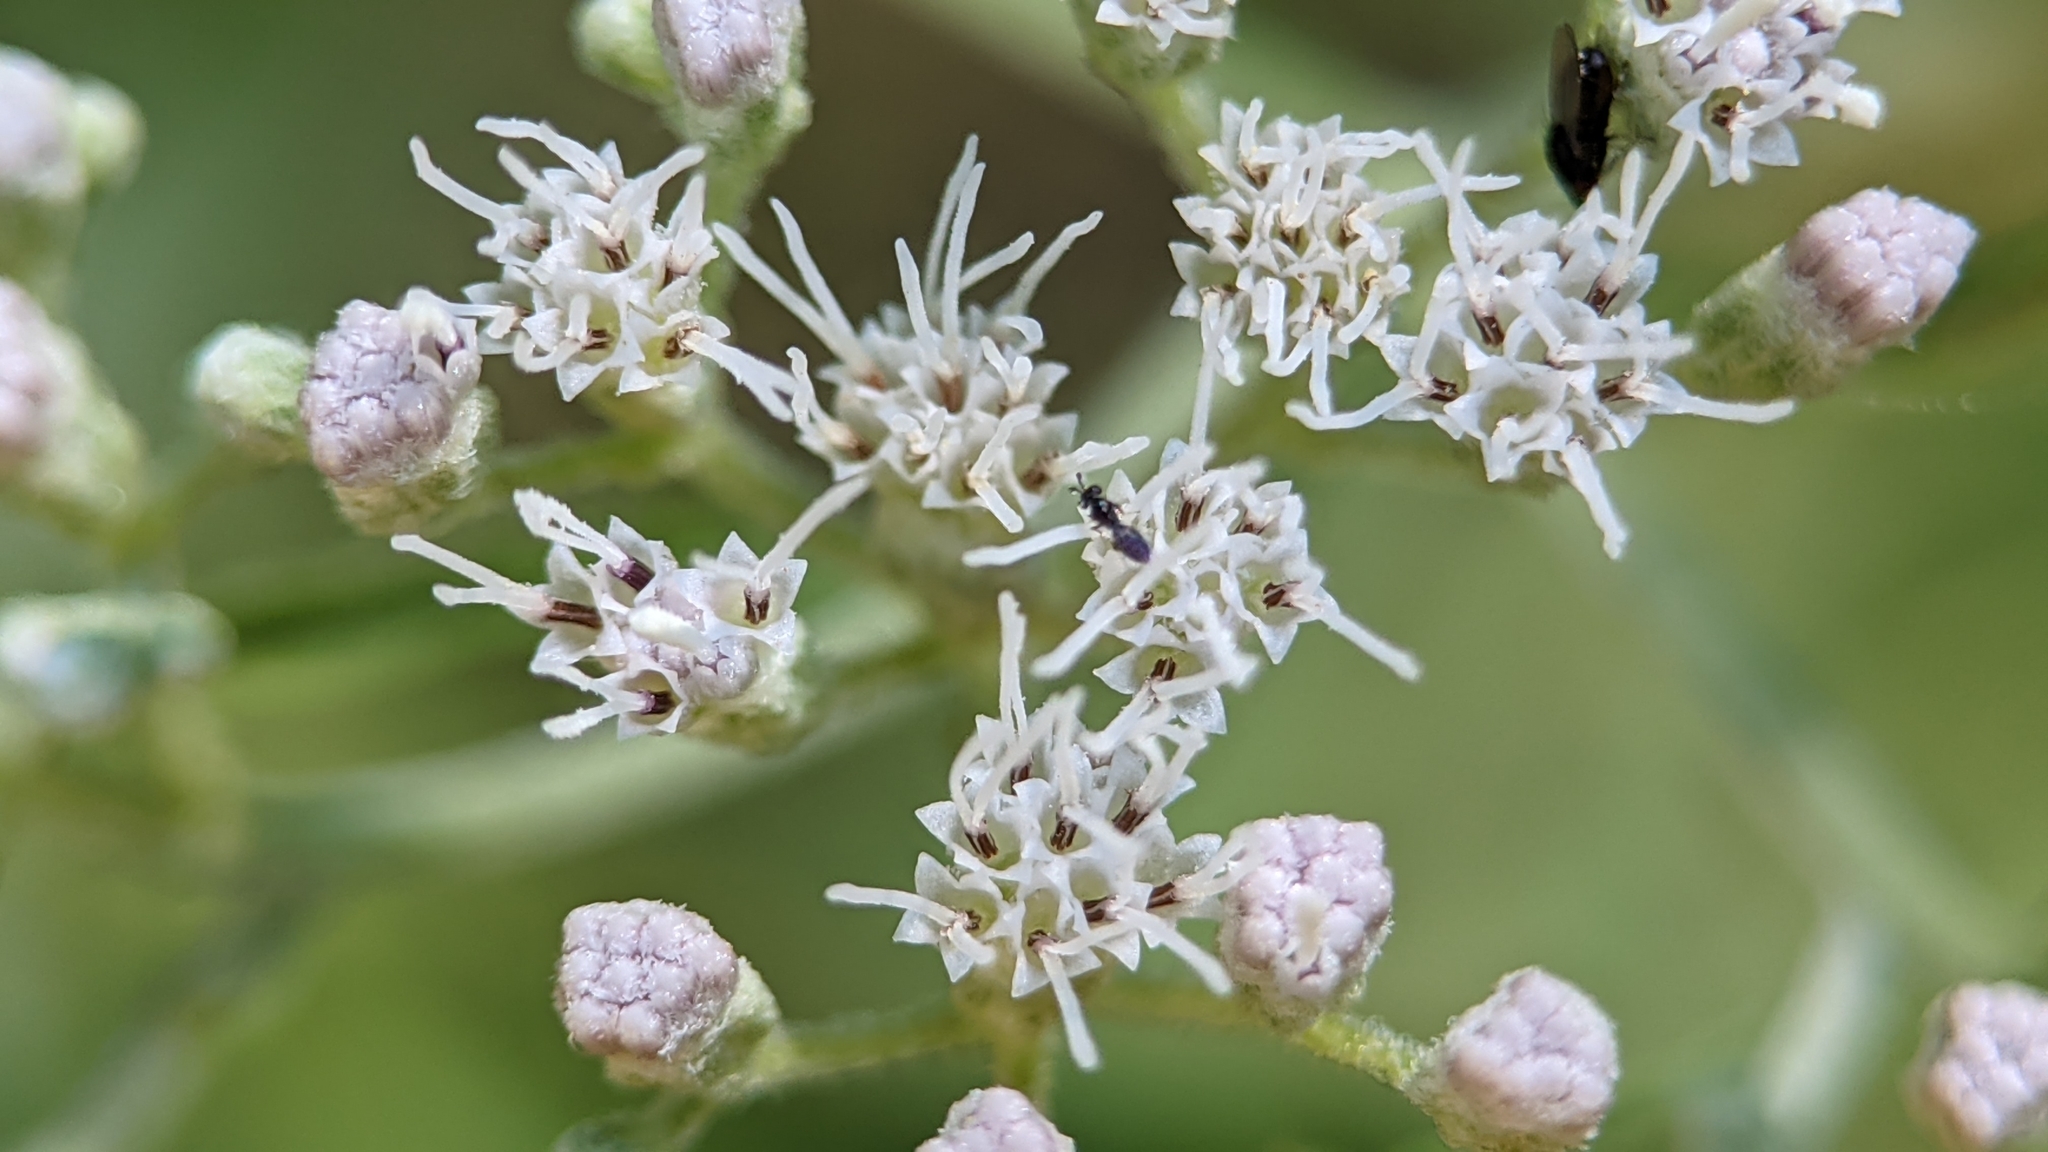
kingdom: Plantae
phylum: Tracheophyta
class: Magnoliopsida
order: Asterales
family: Asteraceae
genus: Eupatorium
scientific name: Eupatorium serotinum
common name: Late boneset
